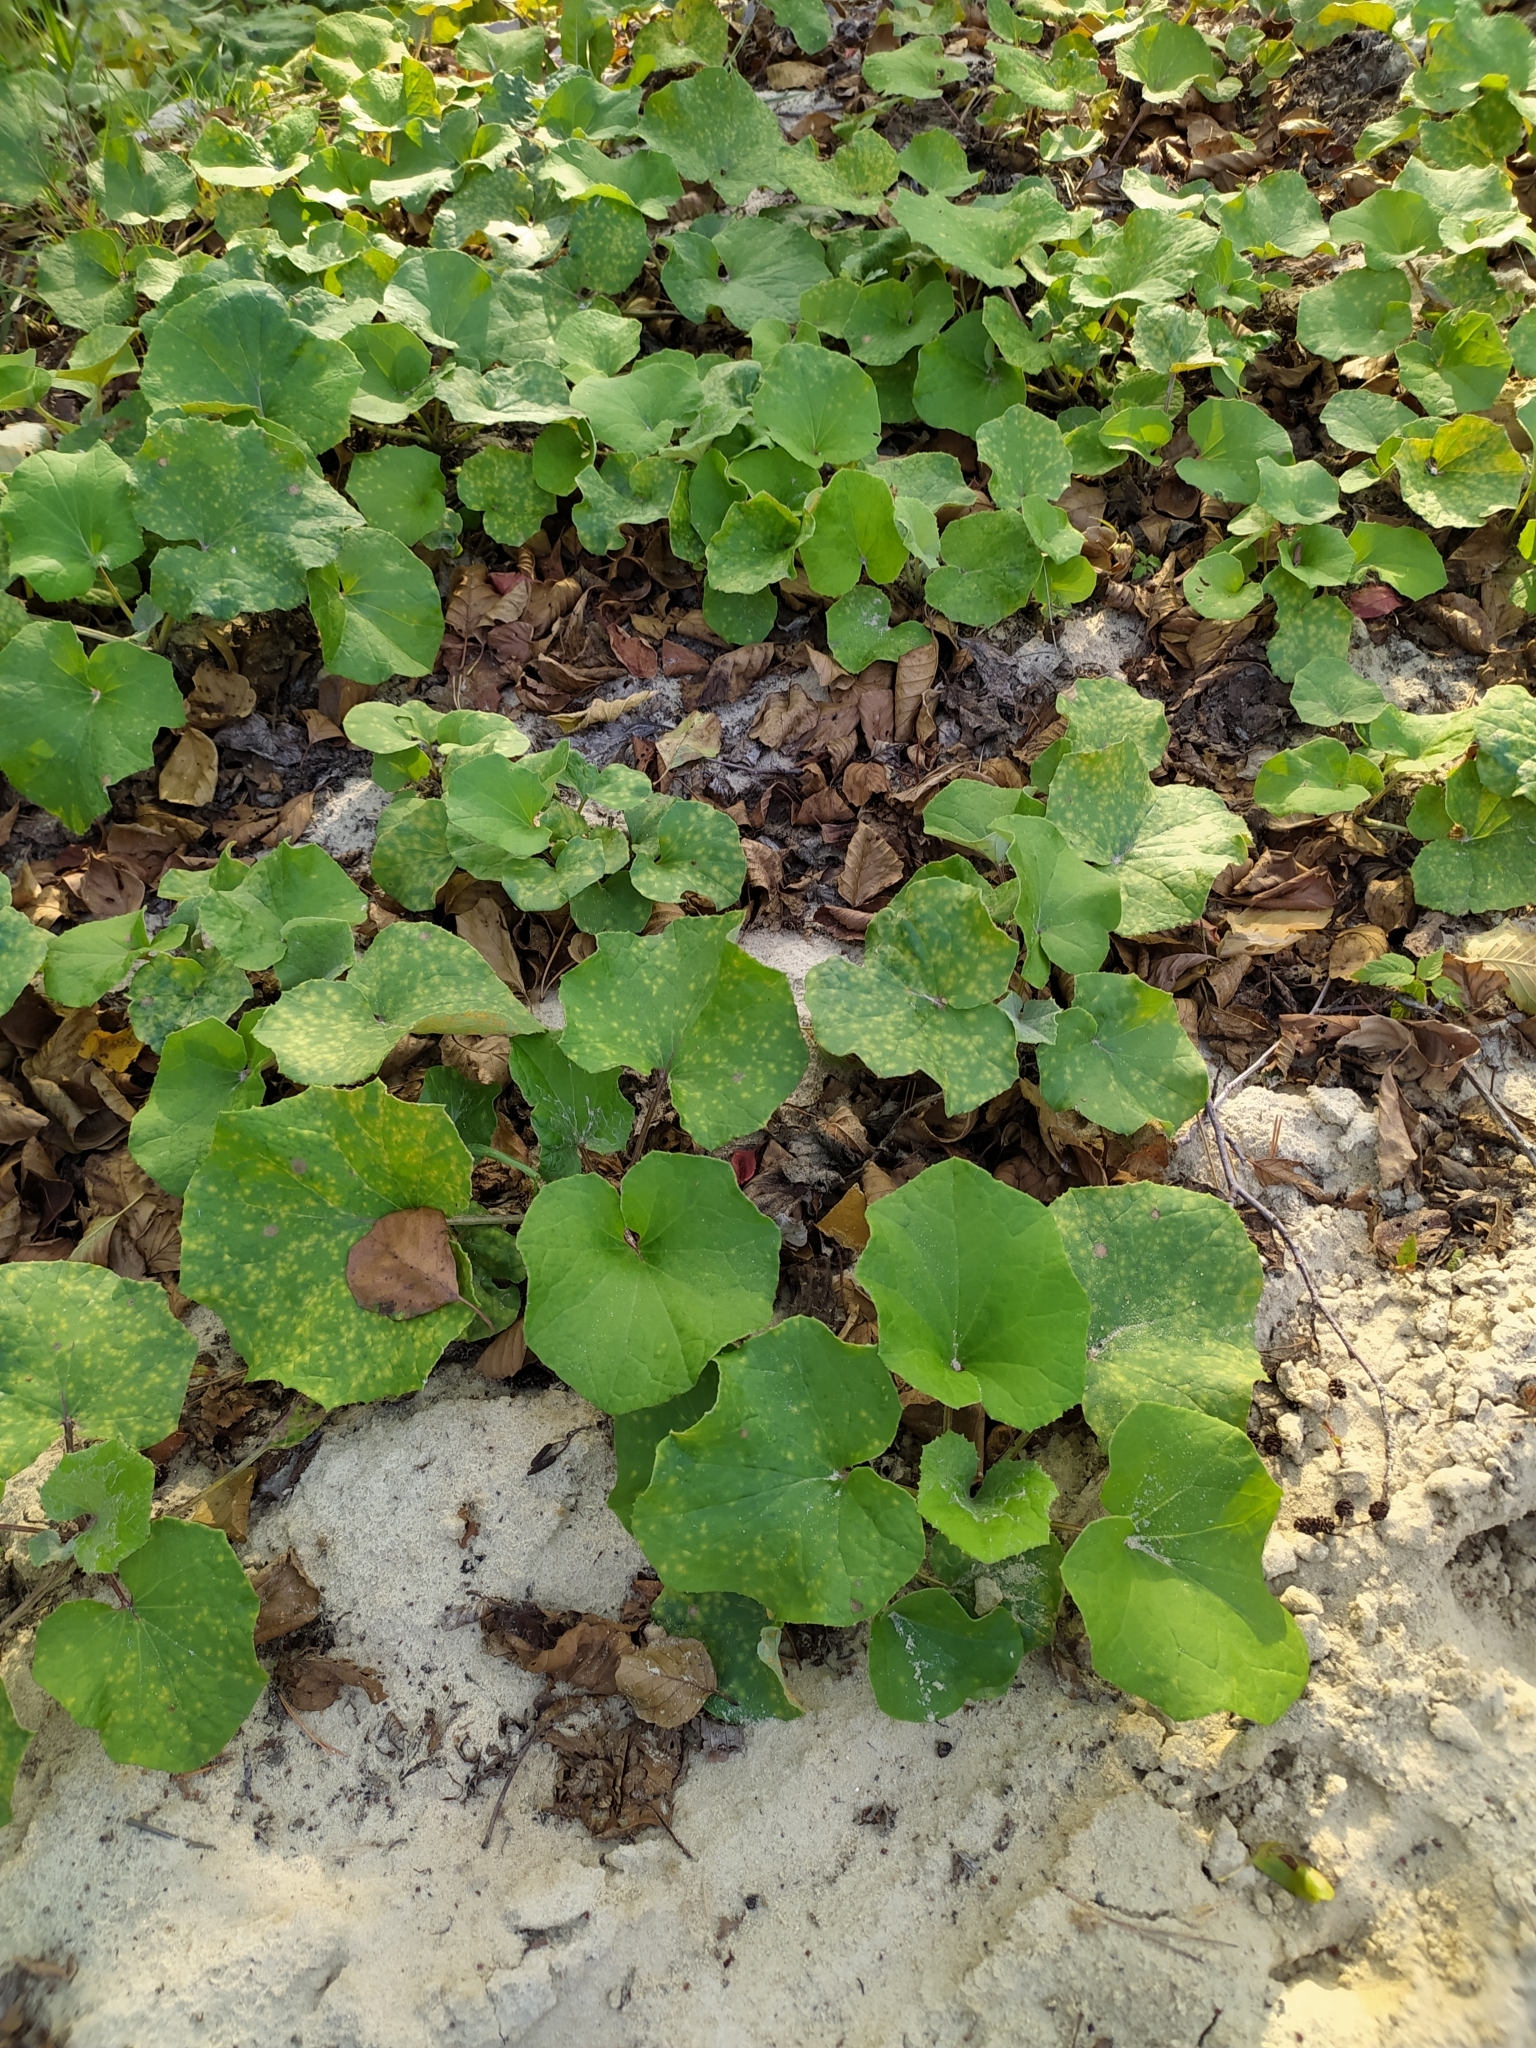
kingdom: Plantae
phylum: Tracheophyta
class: Magnoliopsida
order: Asterales
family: Asteraceae
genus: Tussilago
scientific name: Tussilago farfara
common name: Coltsfoot
